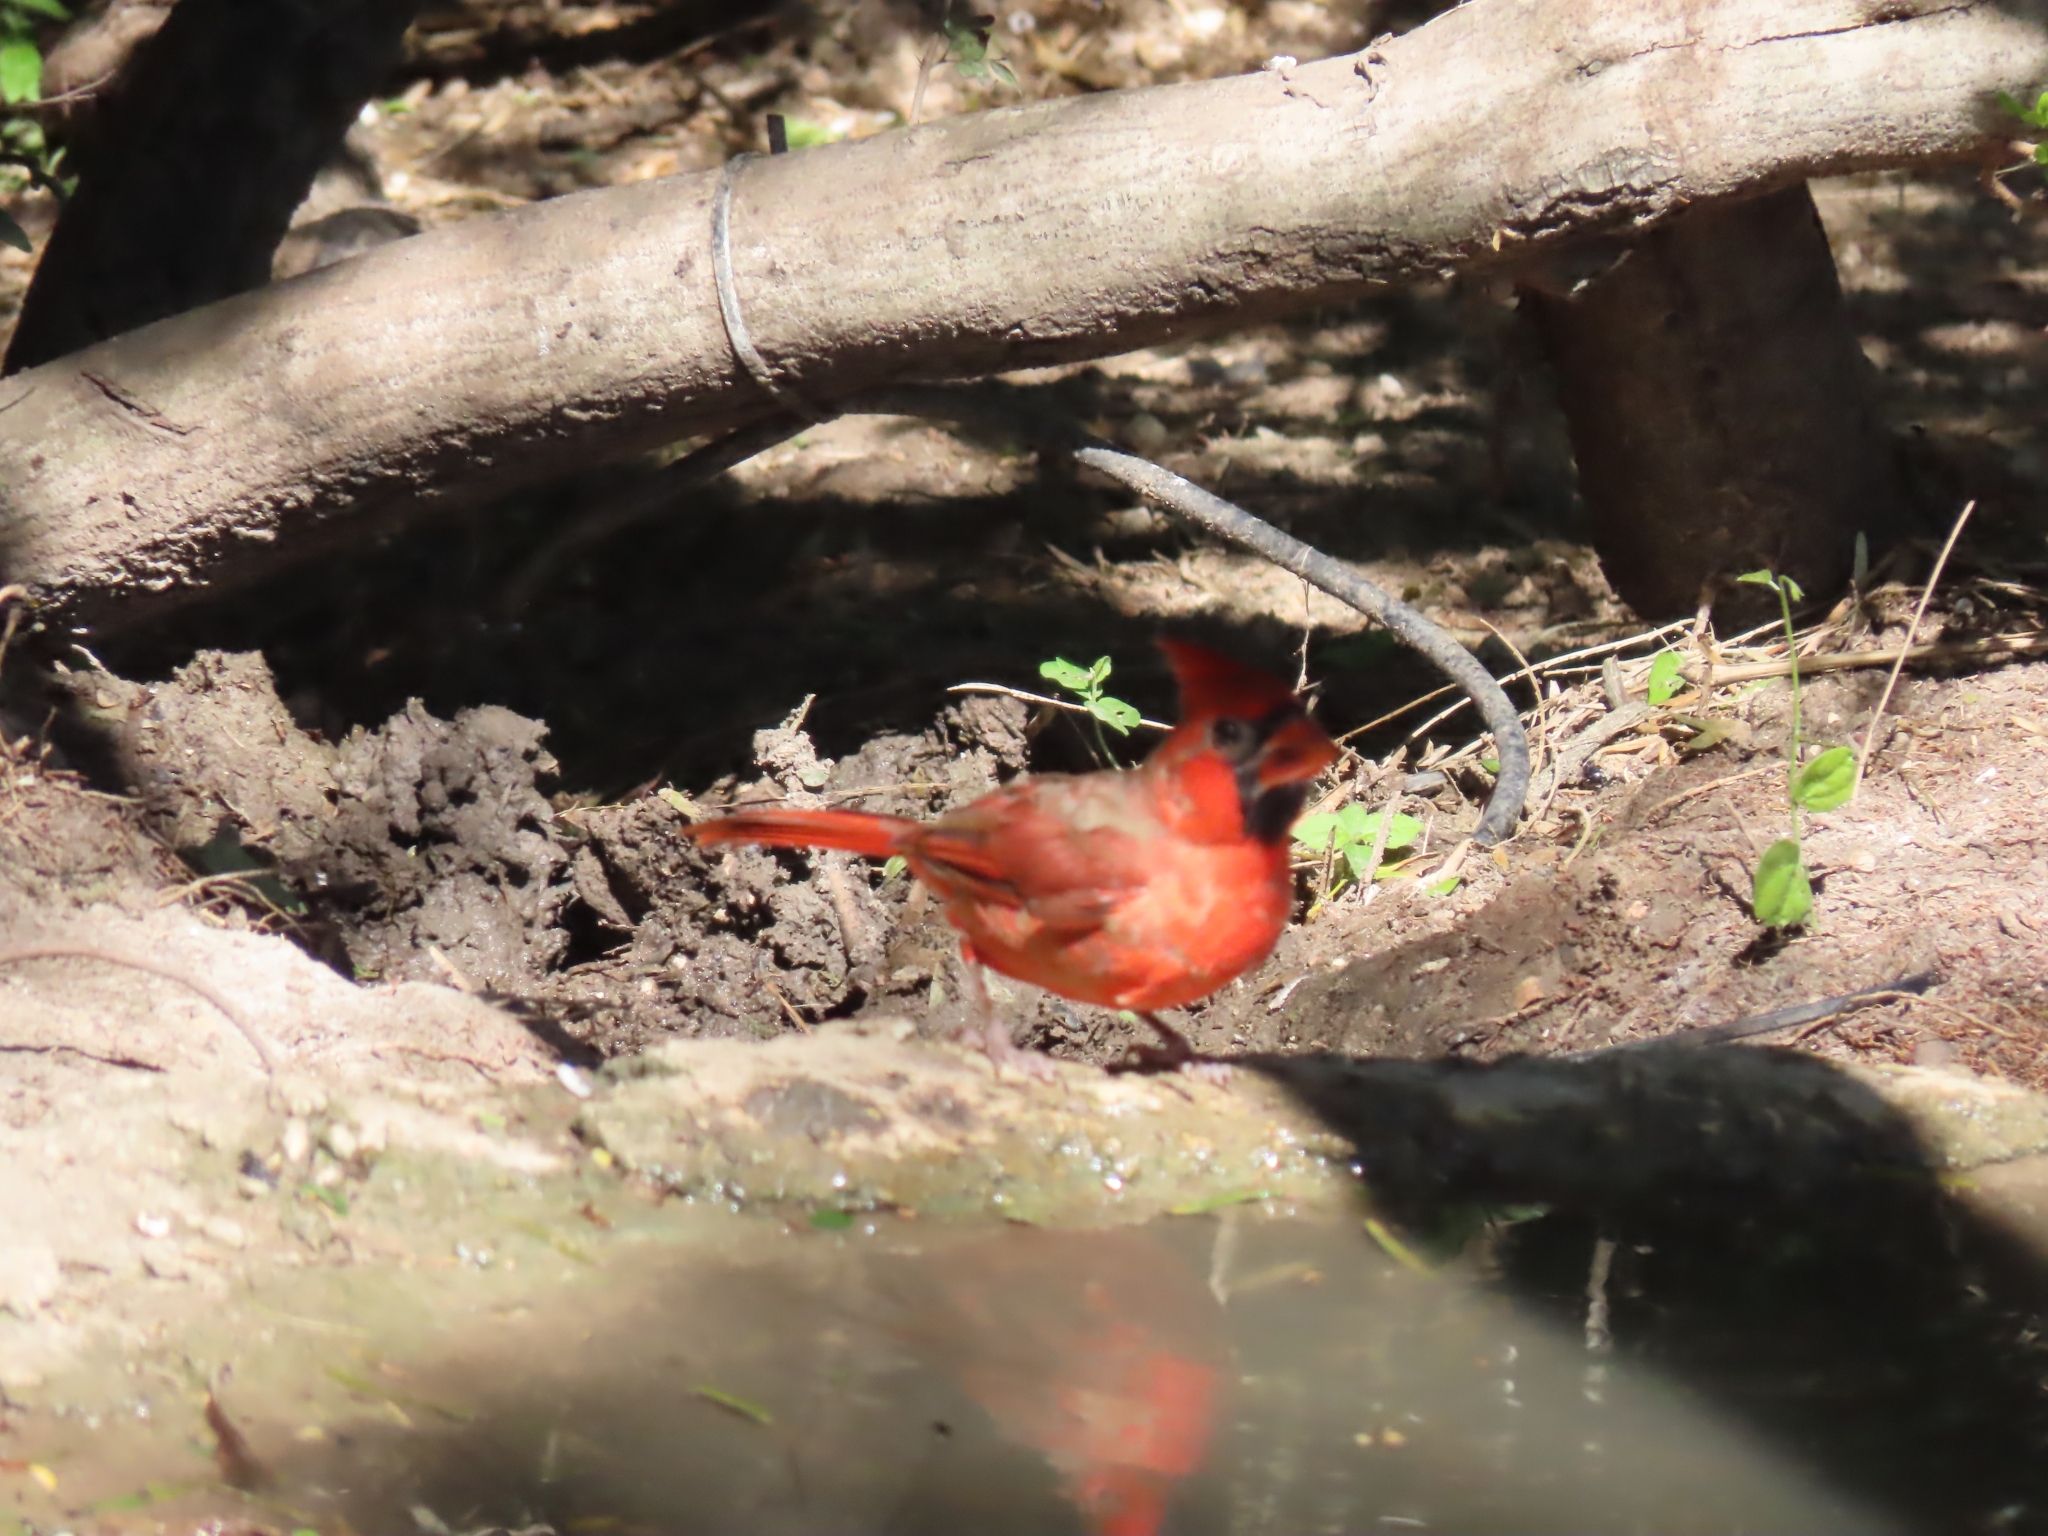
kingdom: Animalia
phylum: Chordata
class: Aves
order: Passeriformes
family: Cardinalidae
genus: Cardinalis
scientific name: Cardinalis cardinalis
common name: Northern cardinal
